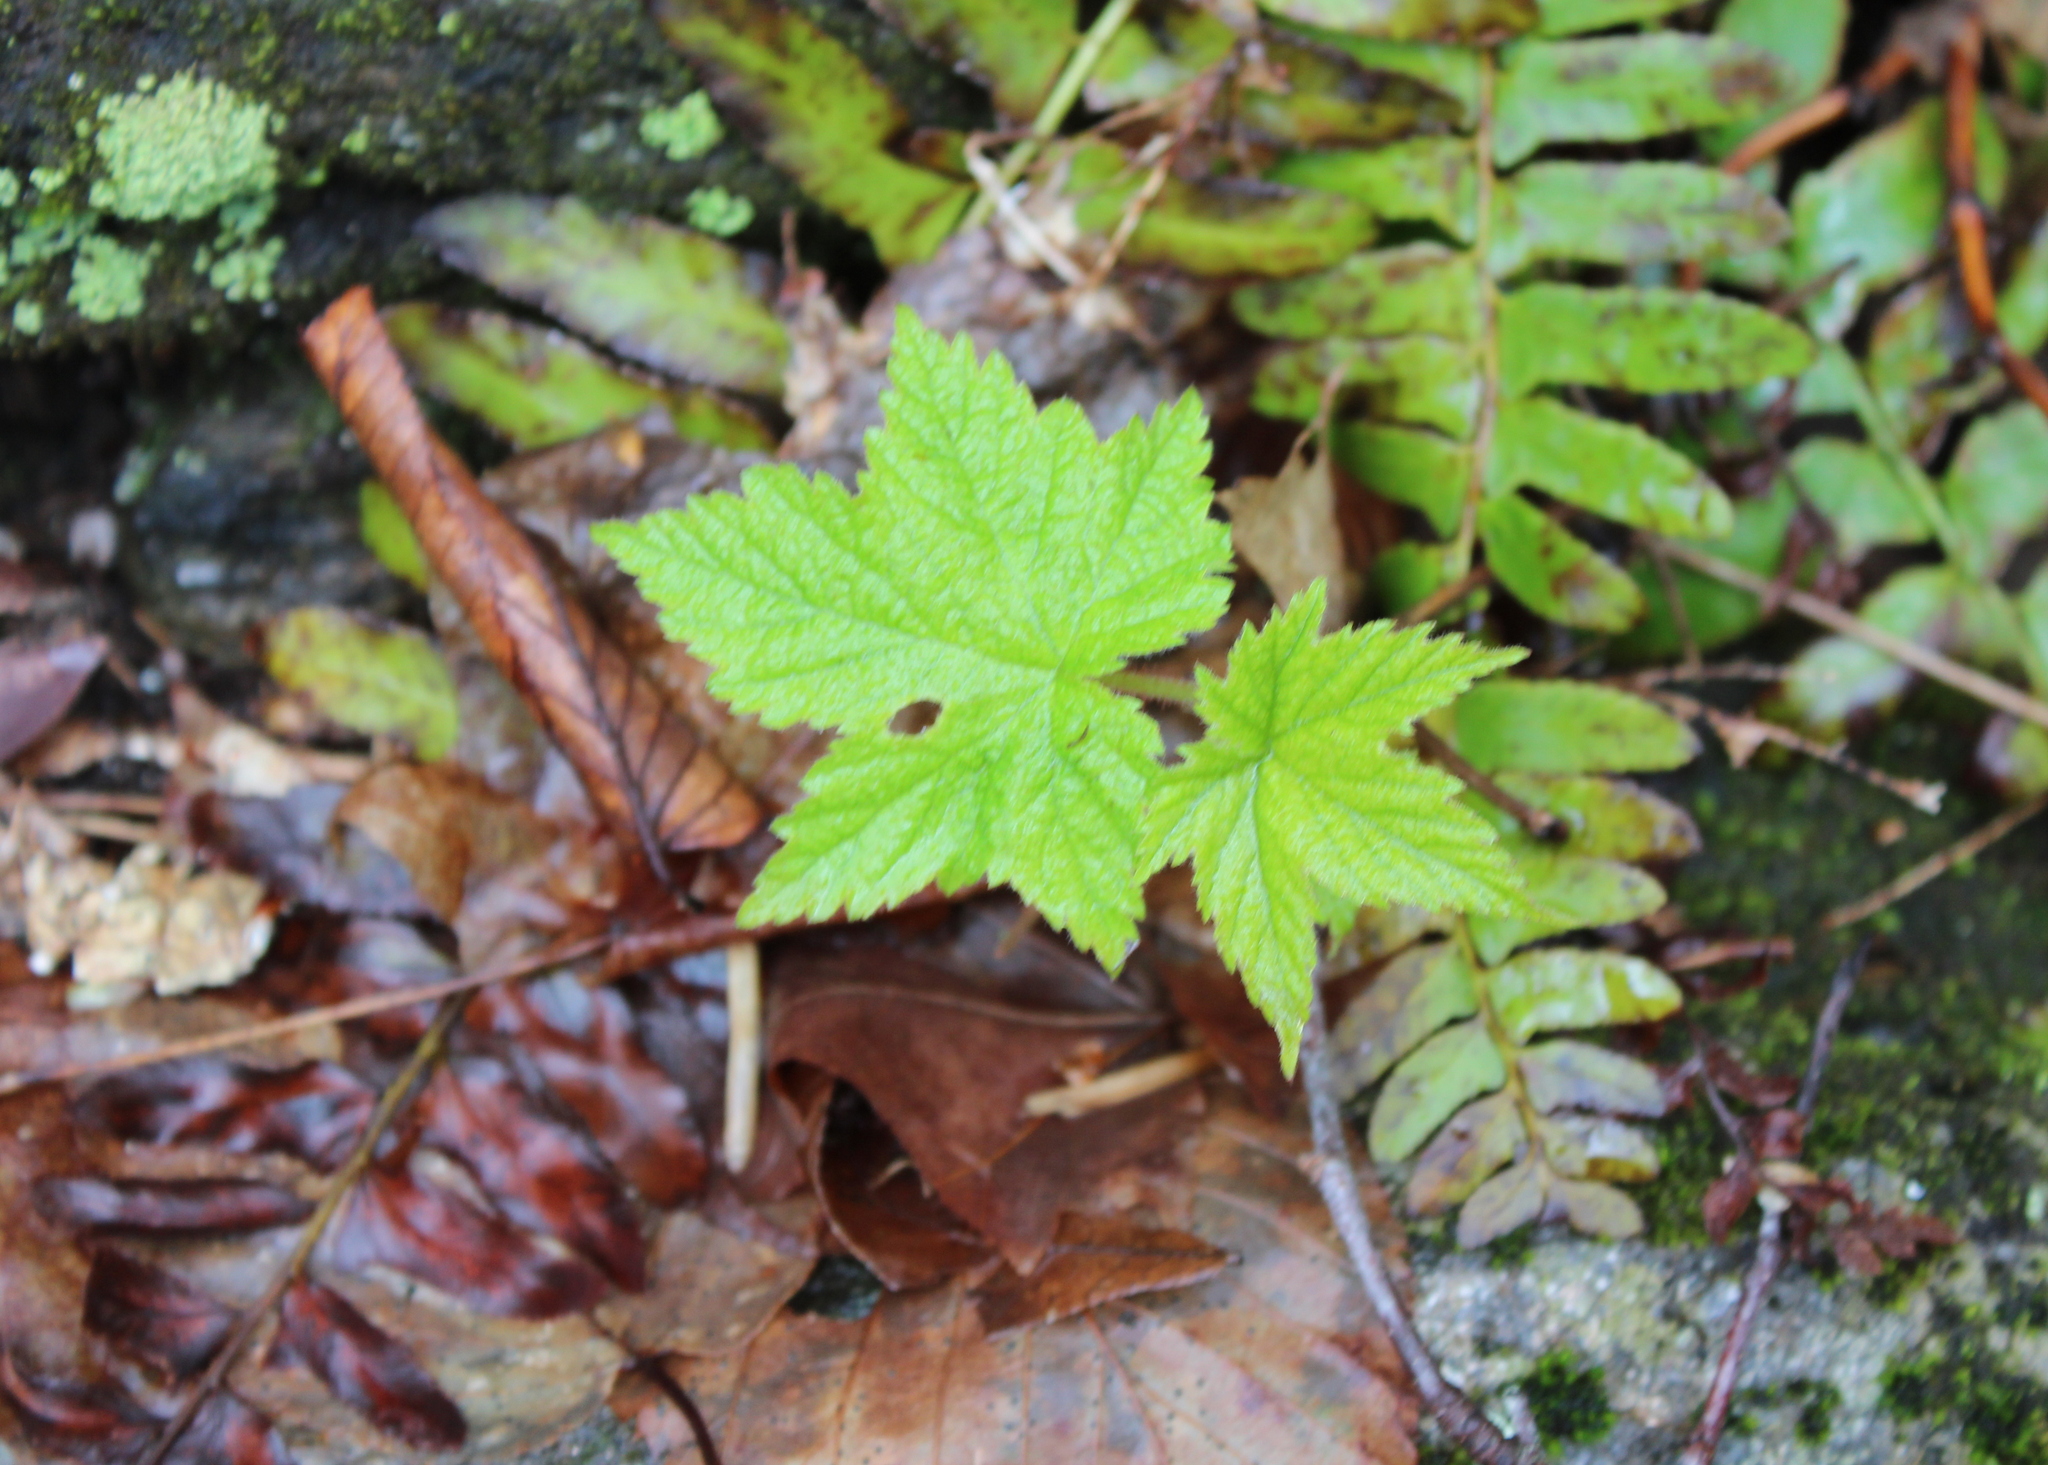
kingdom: Plantae
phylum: Tracheophyta
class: Magnoliopsida
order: Rosales
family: Rosaceae
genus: Rubus
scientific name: Rubus odoratus
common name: Purple-flowered raspberry
